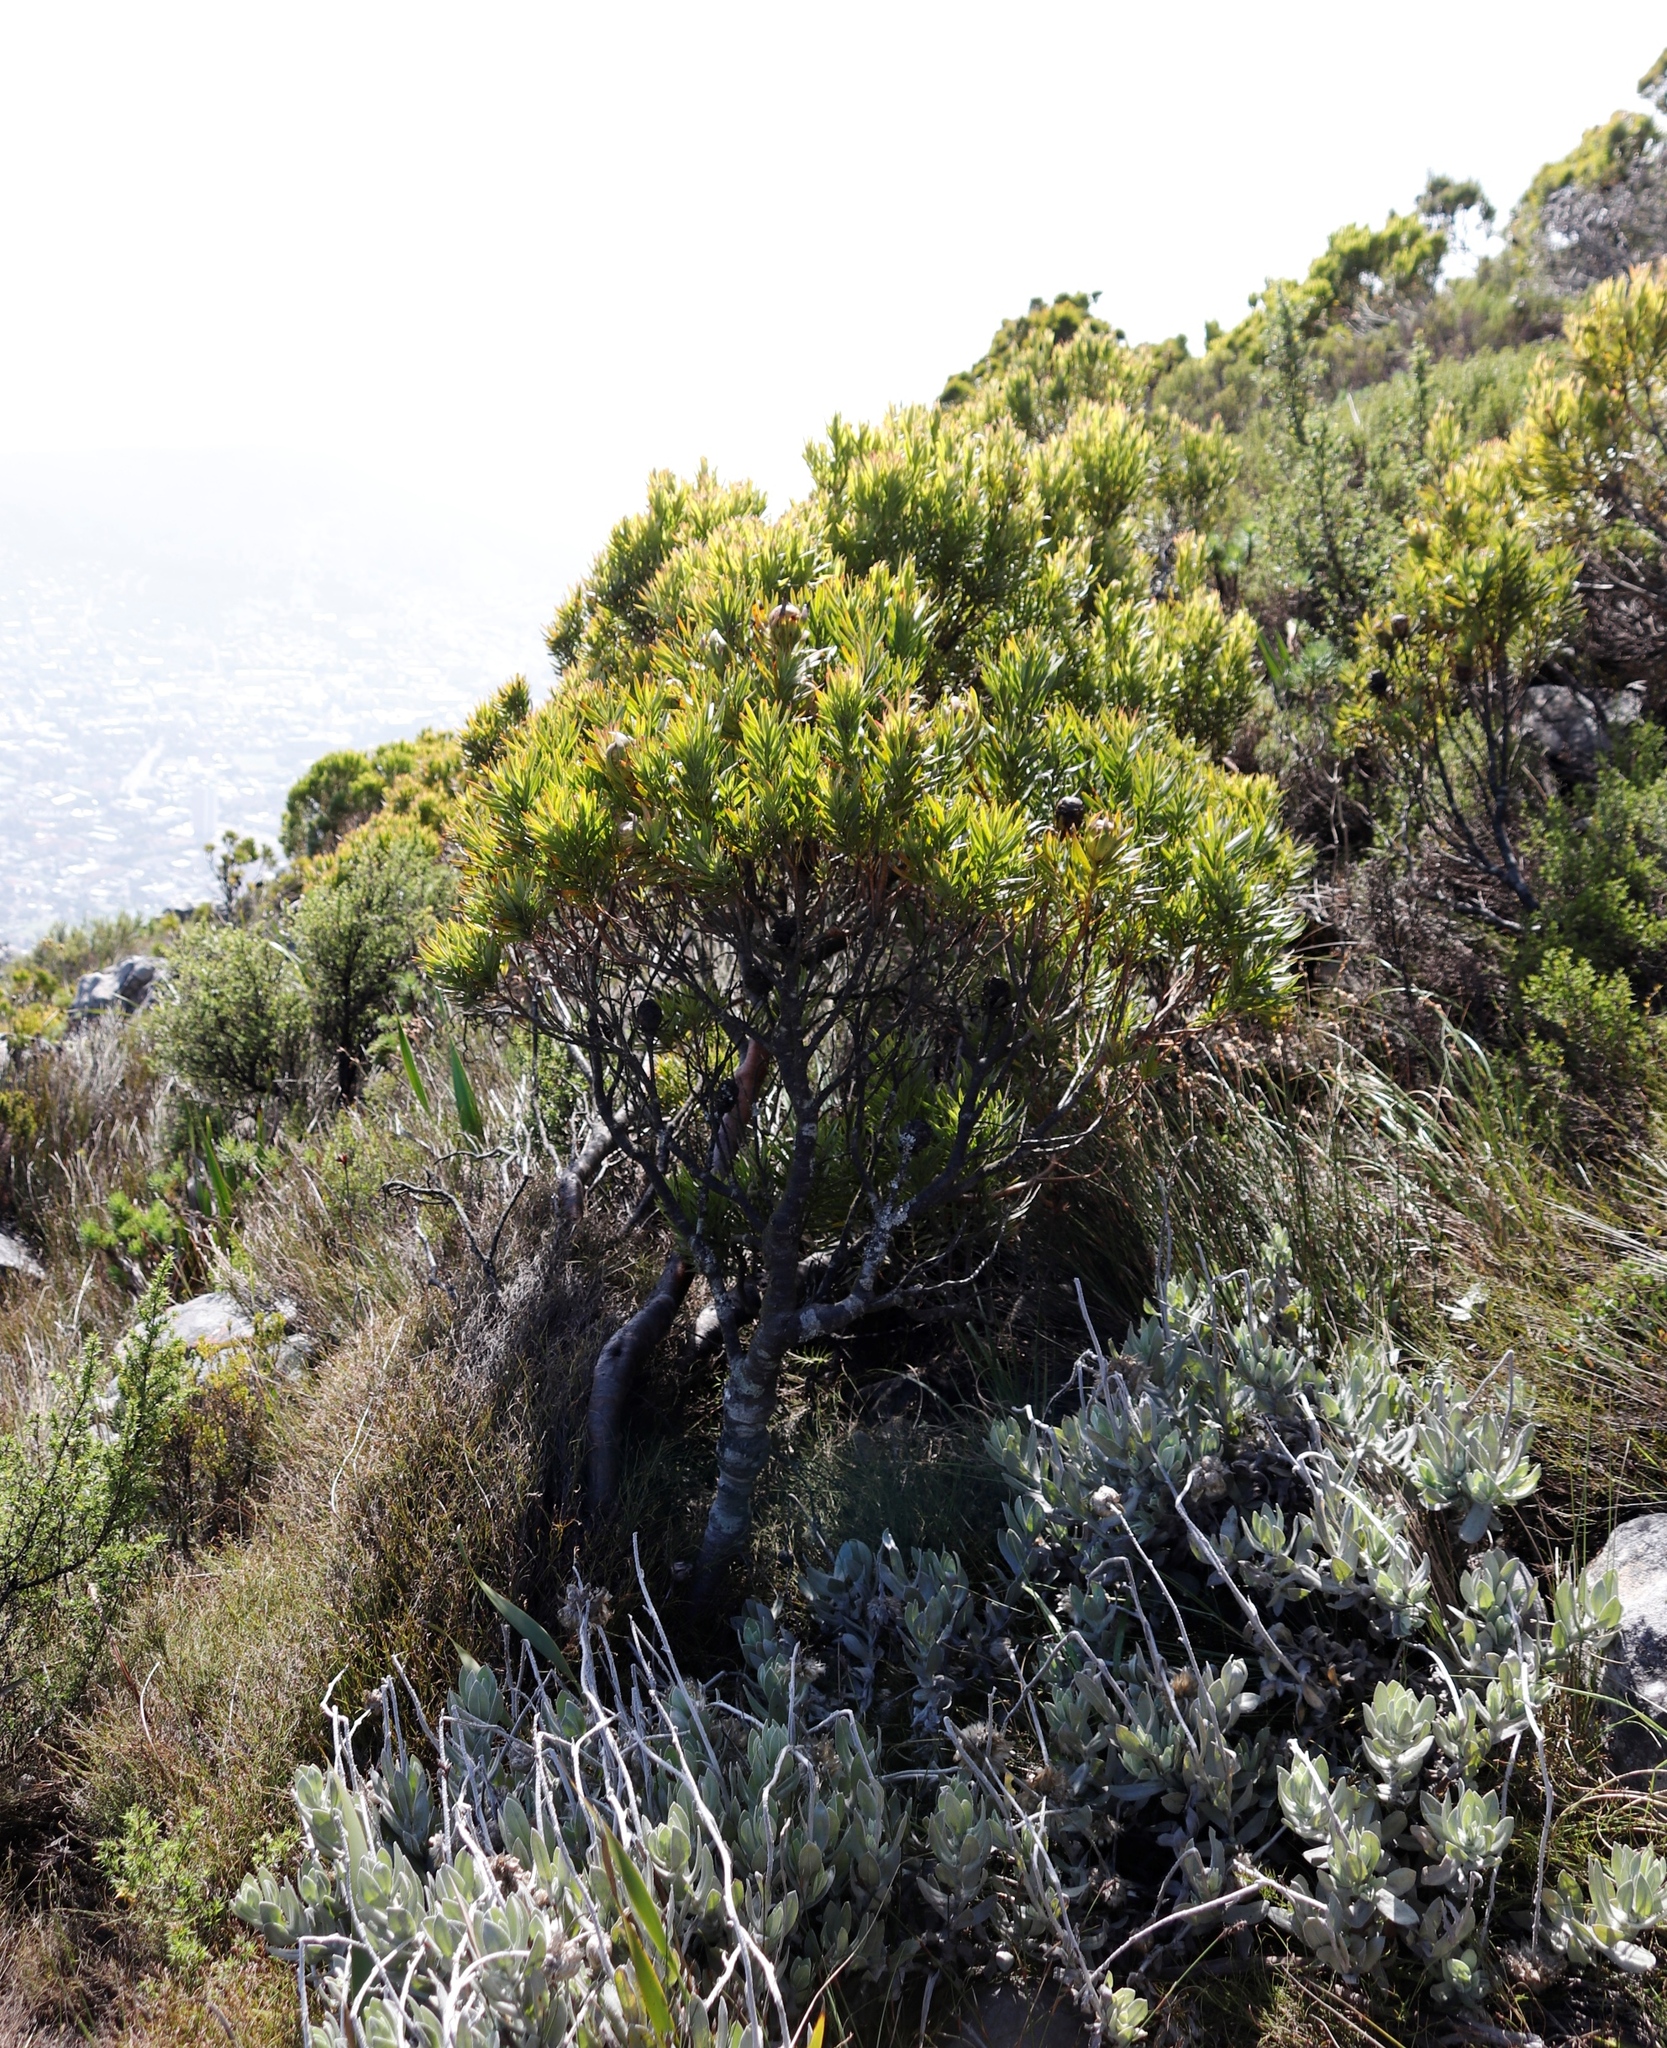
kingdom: Plantae
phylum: Tracheophyta
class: Magnoliopsida
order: Proteales
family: Proteaceae
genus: Leucadendron
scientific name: Leucadendron xanthoconus
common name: Sickle-leaf conebush
